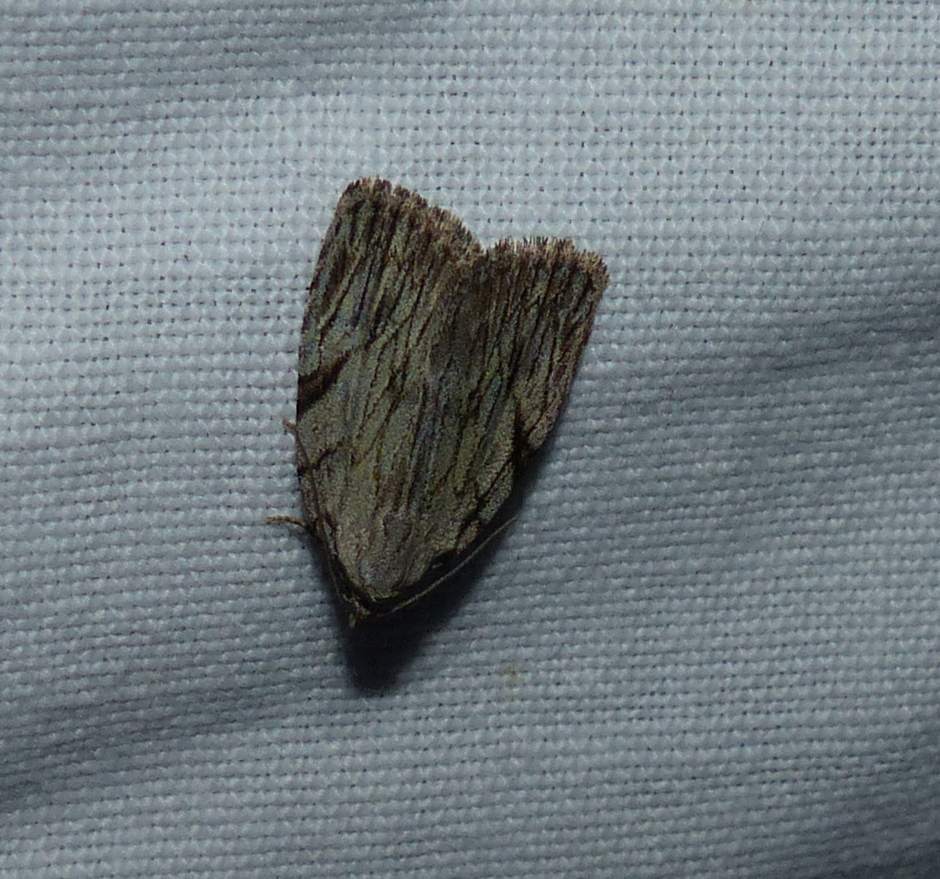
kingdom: Animalia
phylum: Arthropoda
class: Insecta
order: Lepidoptera
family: Noctuidae
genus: Balsa
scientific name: Balsa tristrigella
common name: Three-lined balsa moth
